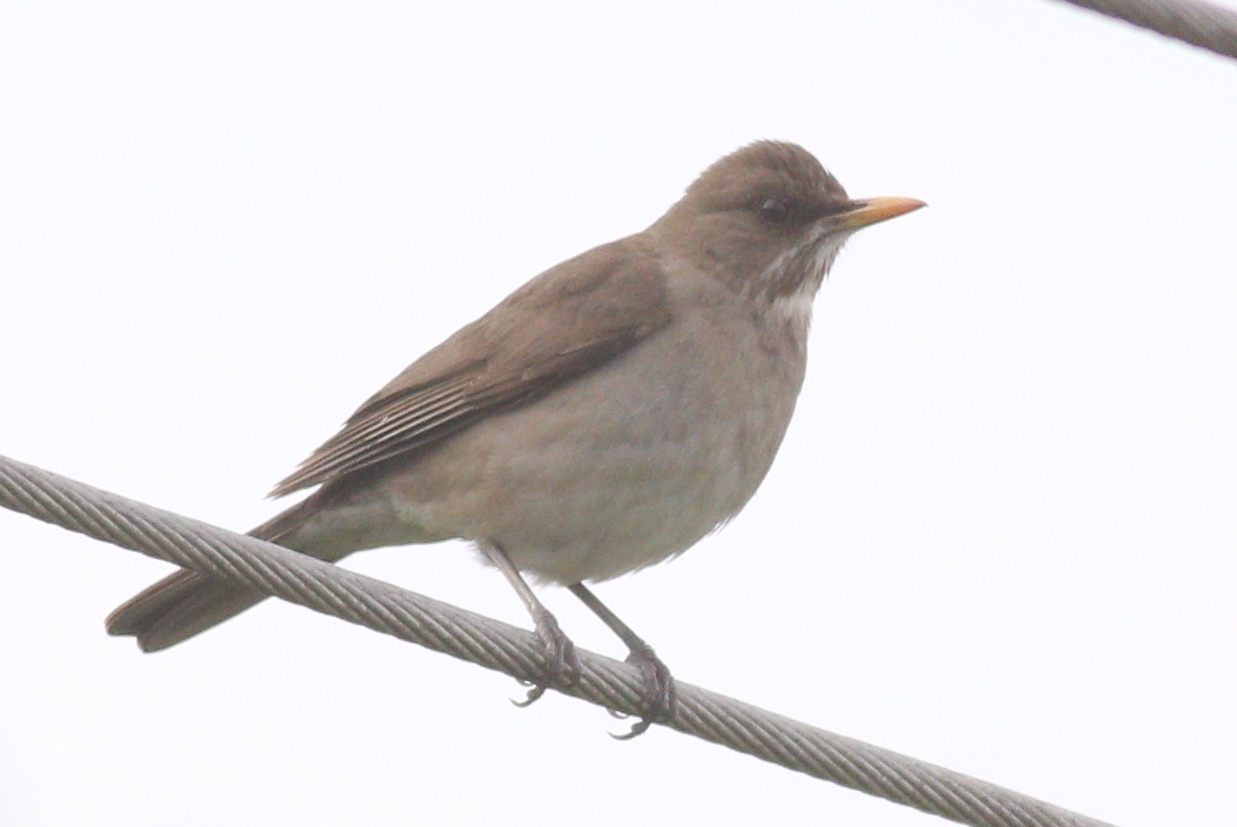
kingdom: Animalia
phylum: Chordata
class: Aves
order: Passeriformes
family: Turdidae
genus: Turdus
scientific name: Turdus amaurochalinus
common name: Creamy-bellied thrush
